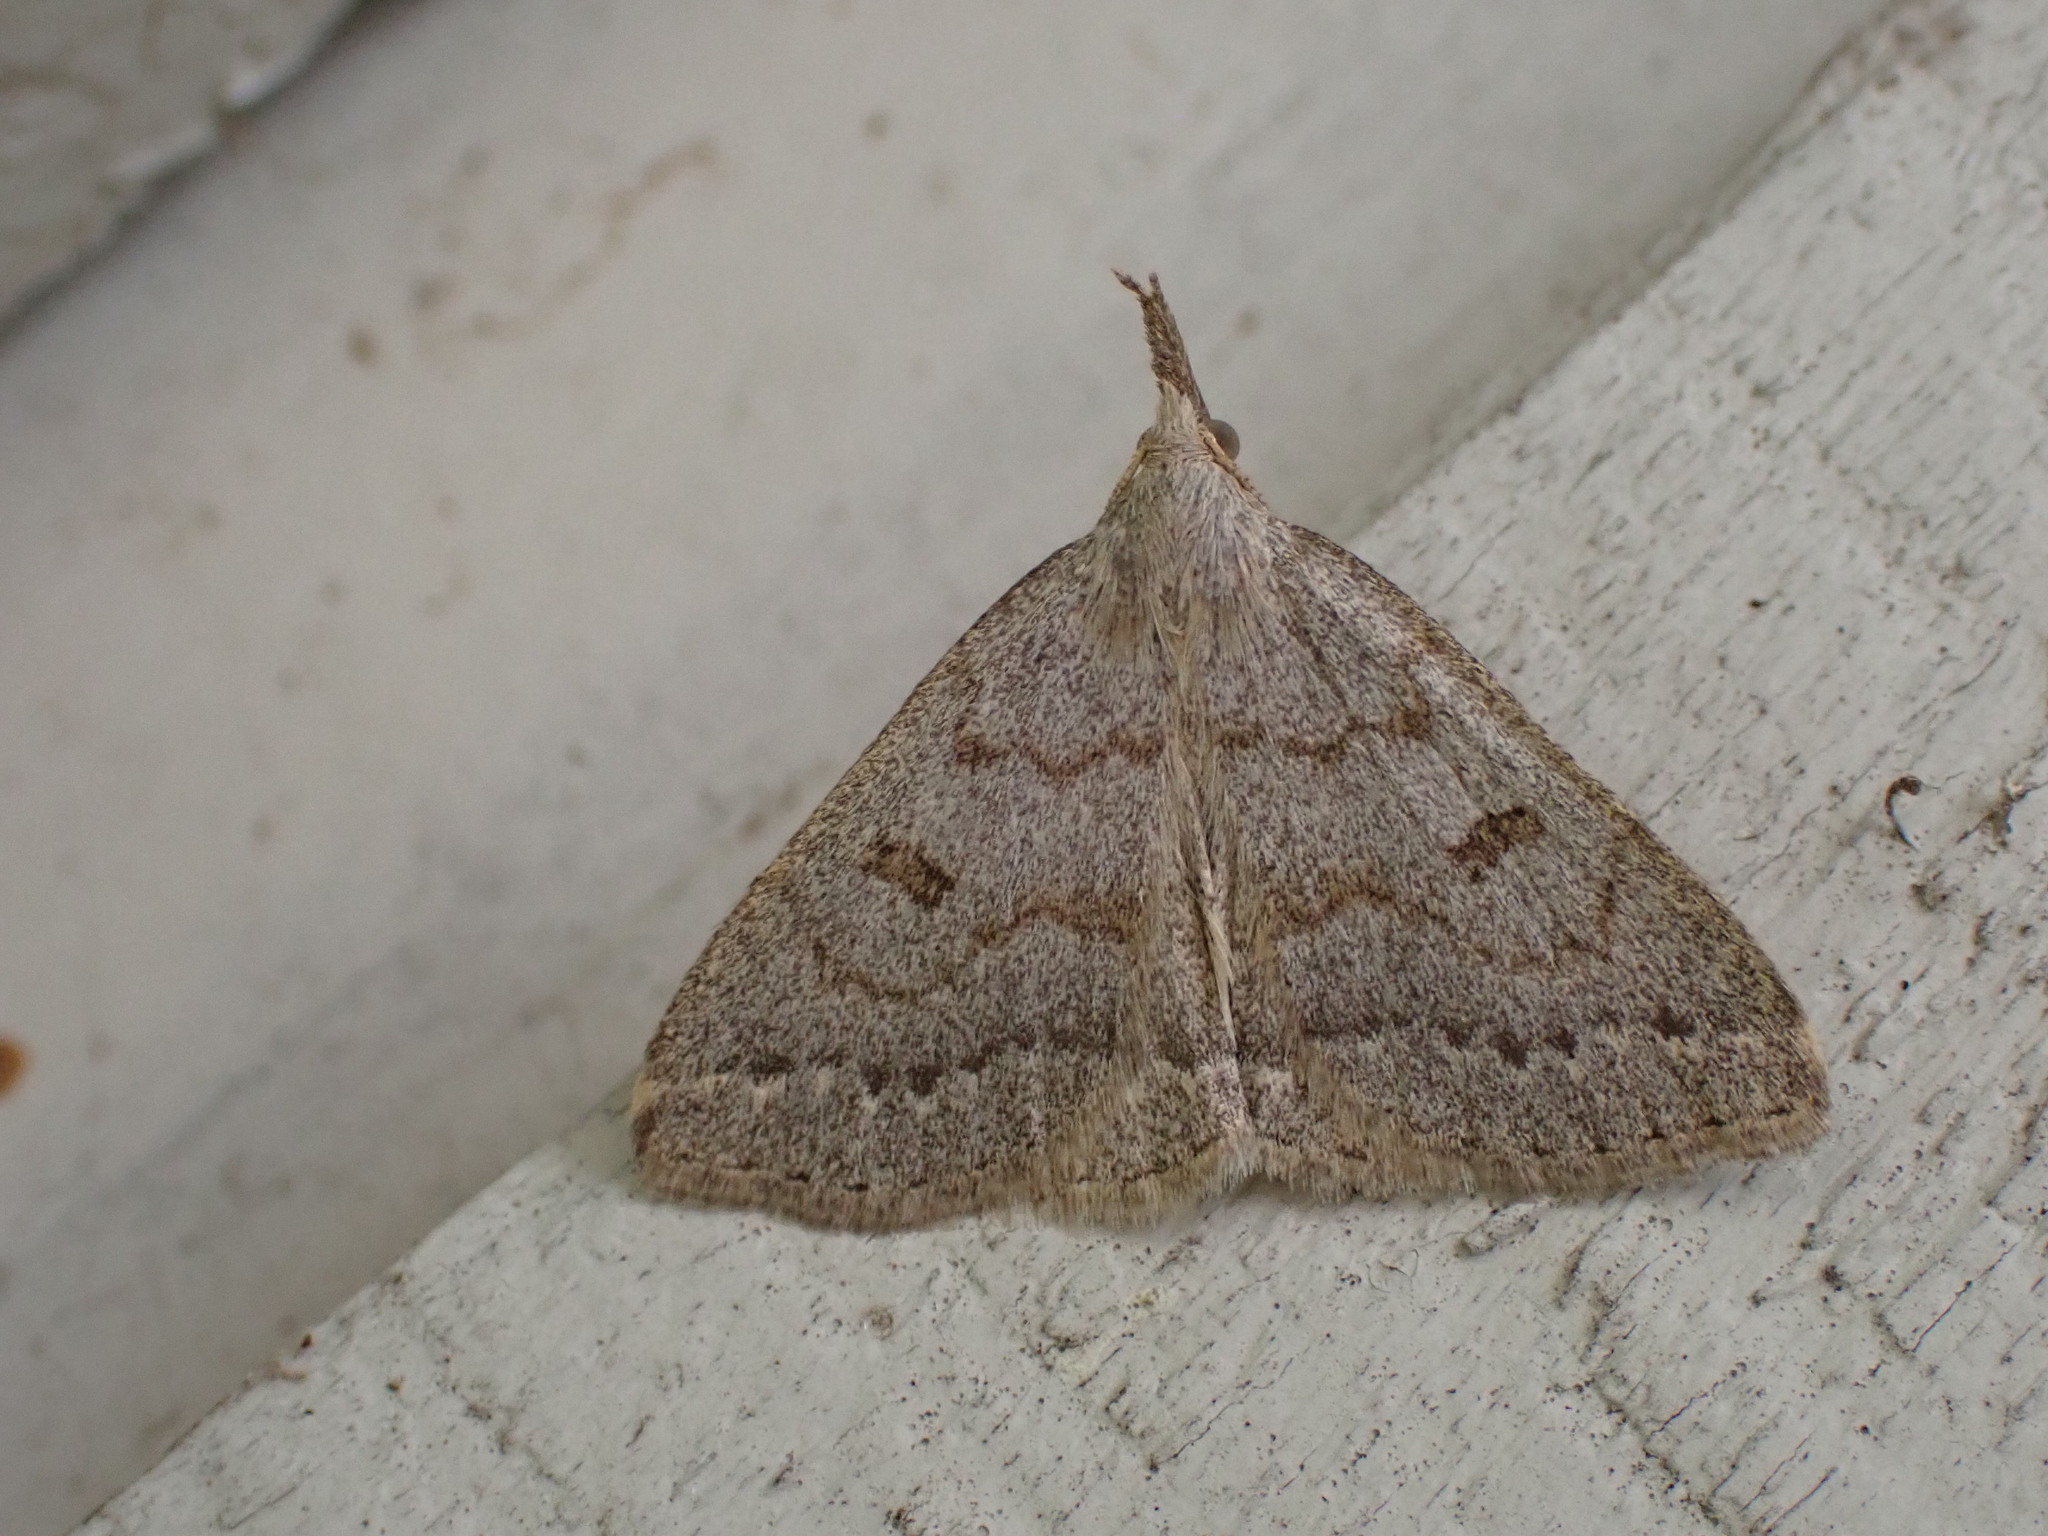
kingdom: Animalia
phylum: Arthropoda
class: Insecta
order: Lepidoptera
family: Erebidae
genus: Macrochilo
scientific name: Macrochilo morbidalis
